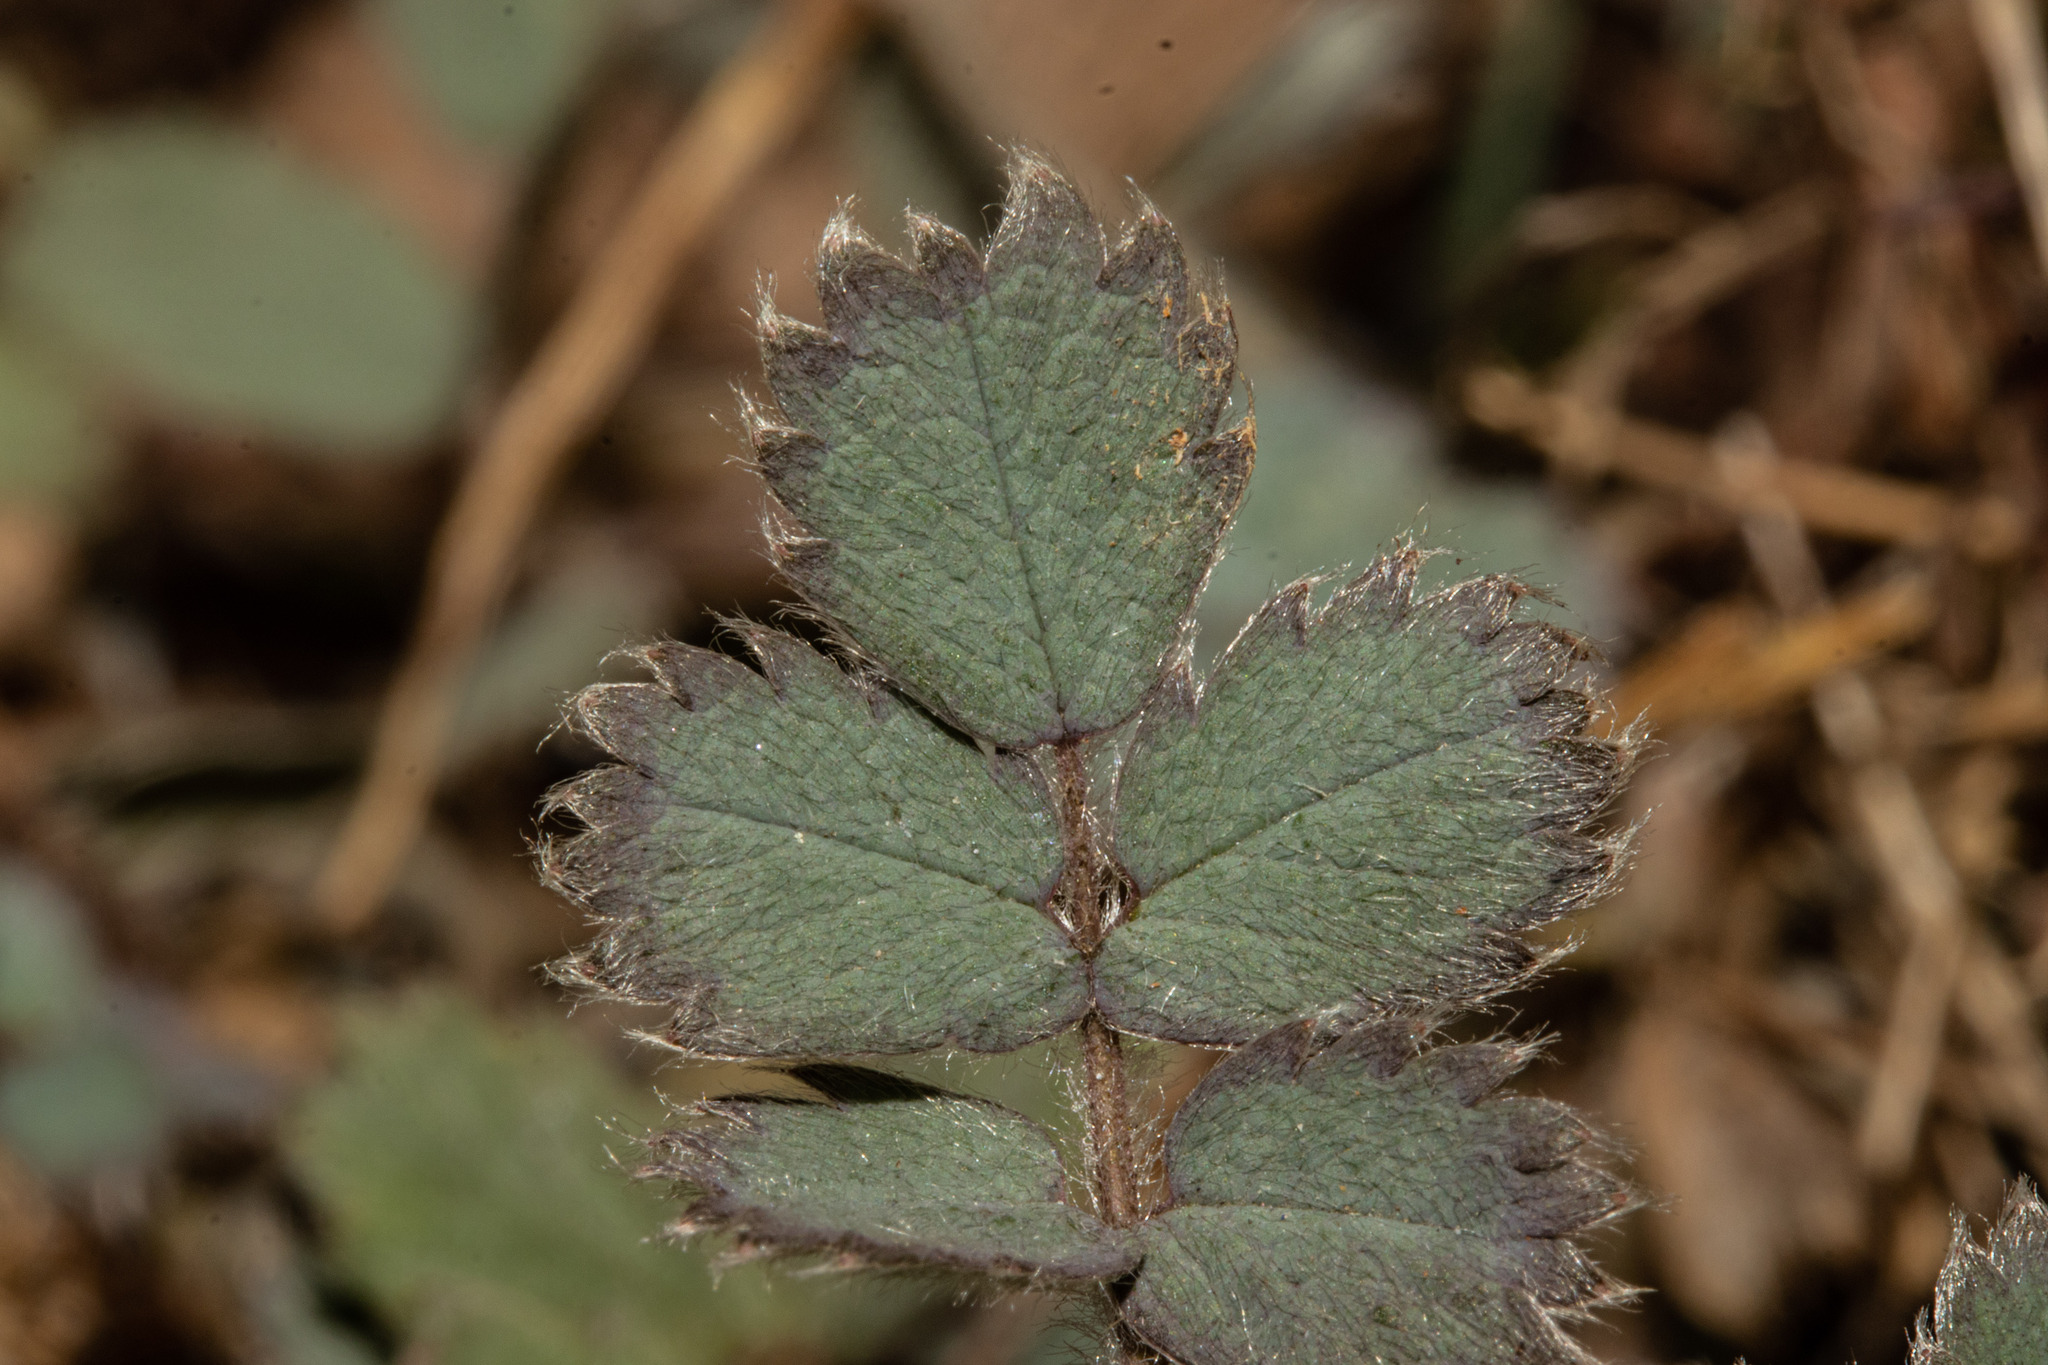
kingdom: Plantae
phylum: Tracheophyta
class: Magnoliopsida
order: Rosales
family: Rosaceae
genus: Acaena
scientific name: Acaena caesiiglauca
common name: Glaucous pirri-pirri-bur
